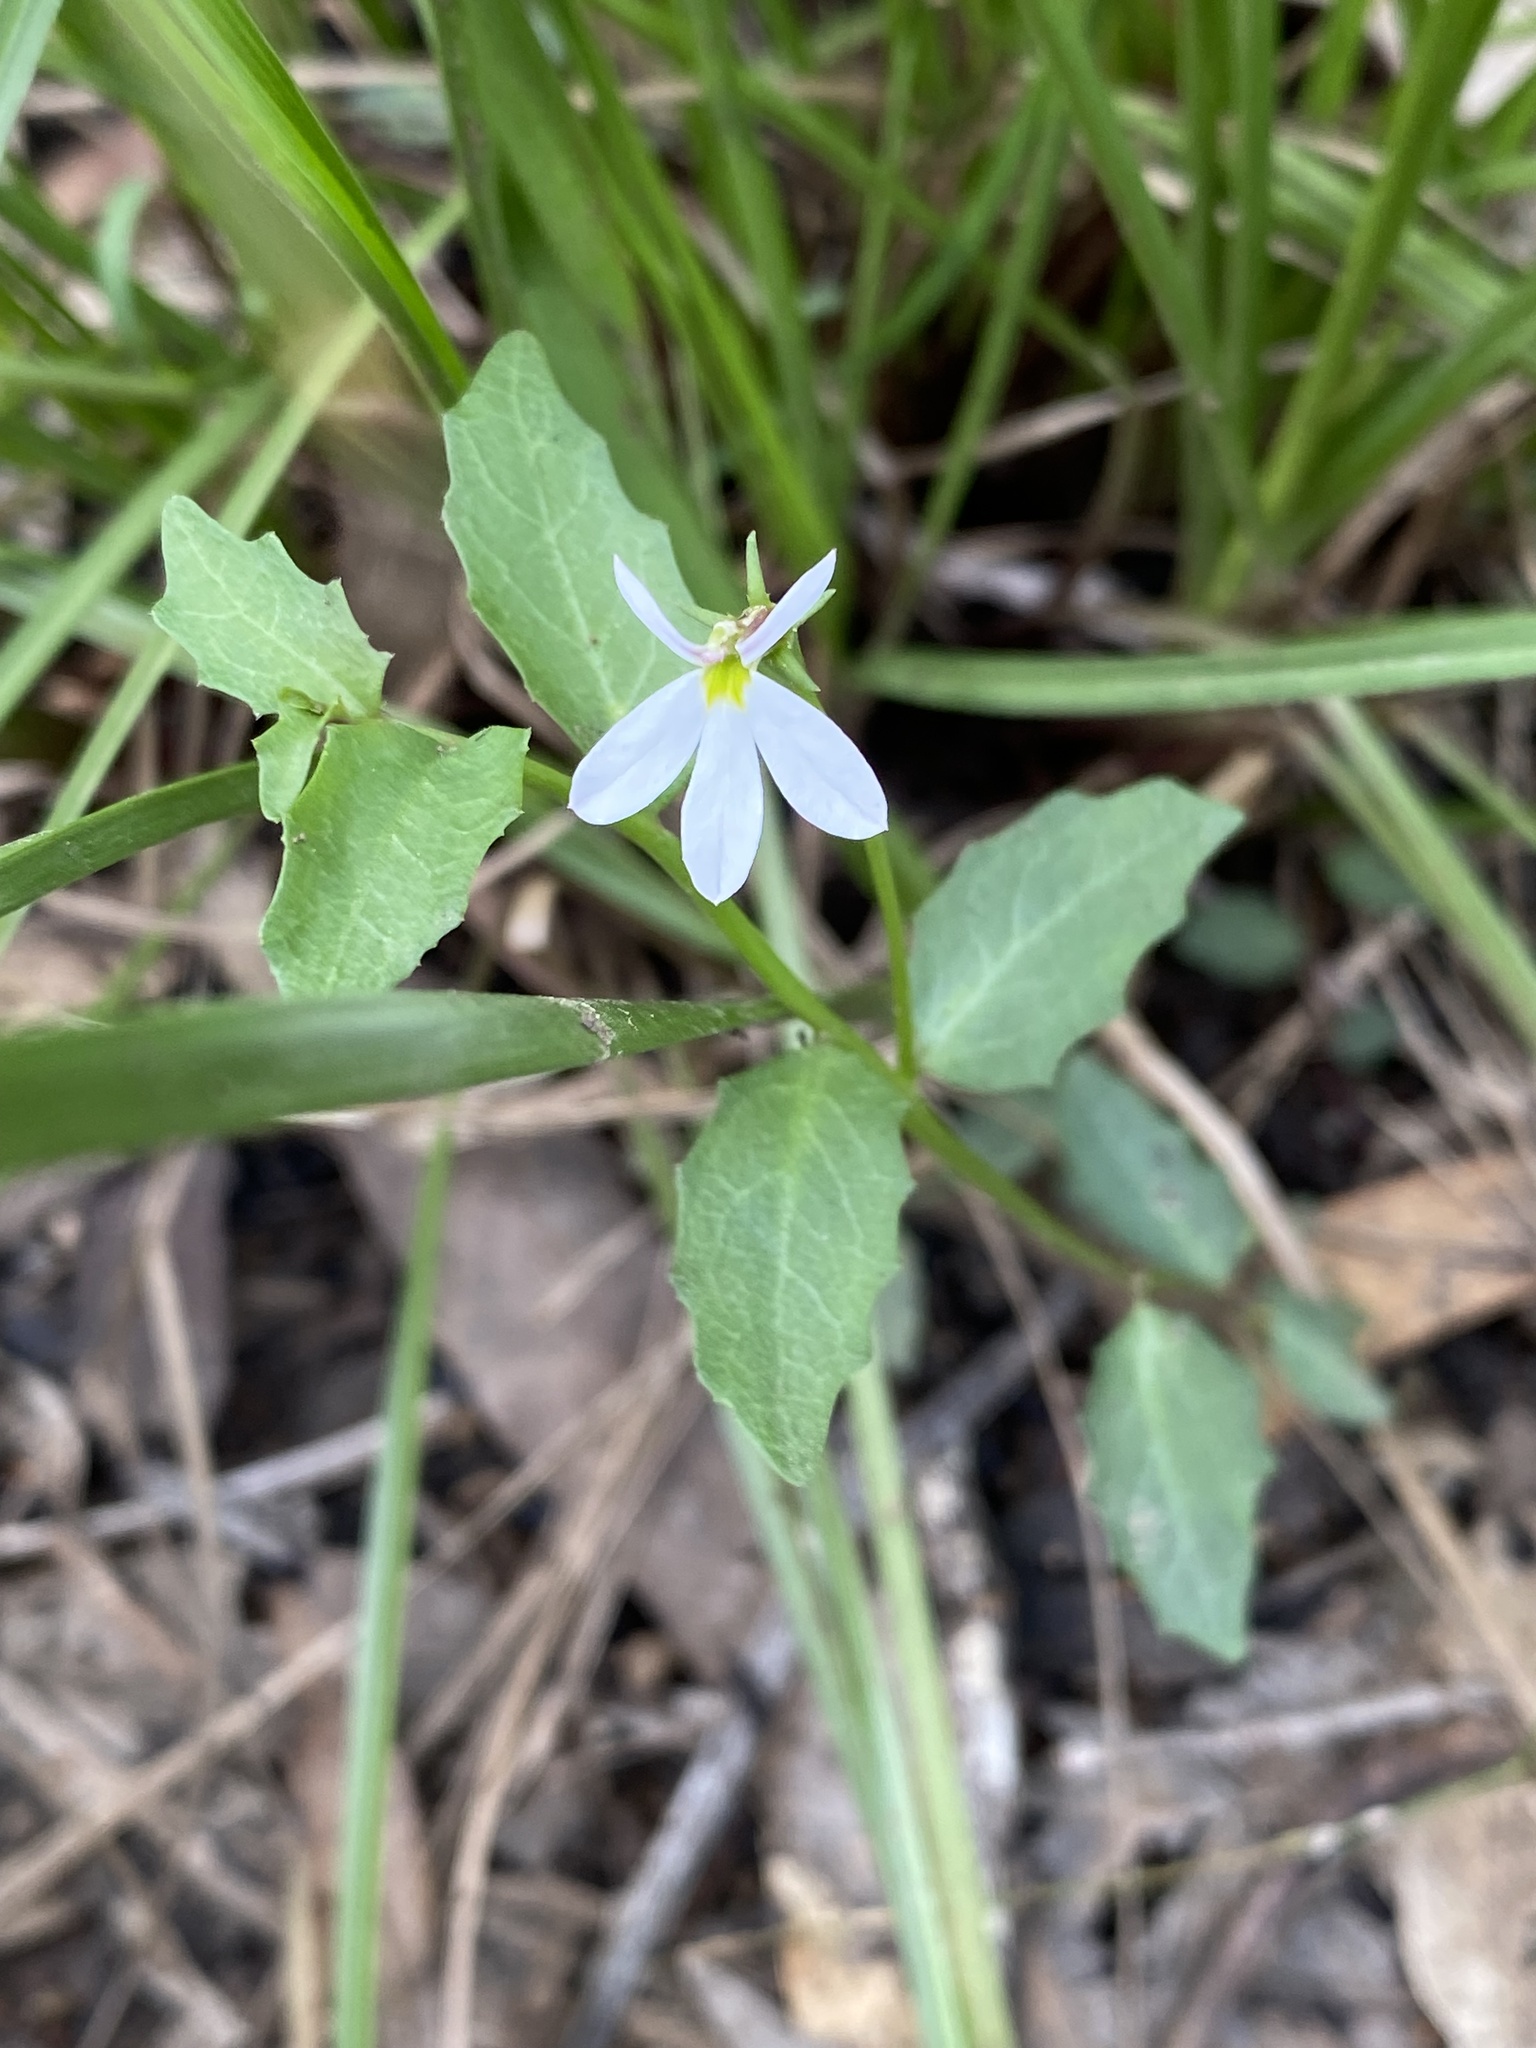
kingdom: Plantae
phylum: Tracheophyta
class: Magnoliopsida
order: Asterales
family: Campanulaceae
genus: Lobelia
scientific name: Lobelia purpurascens
